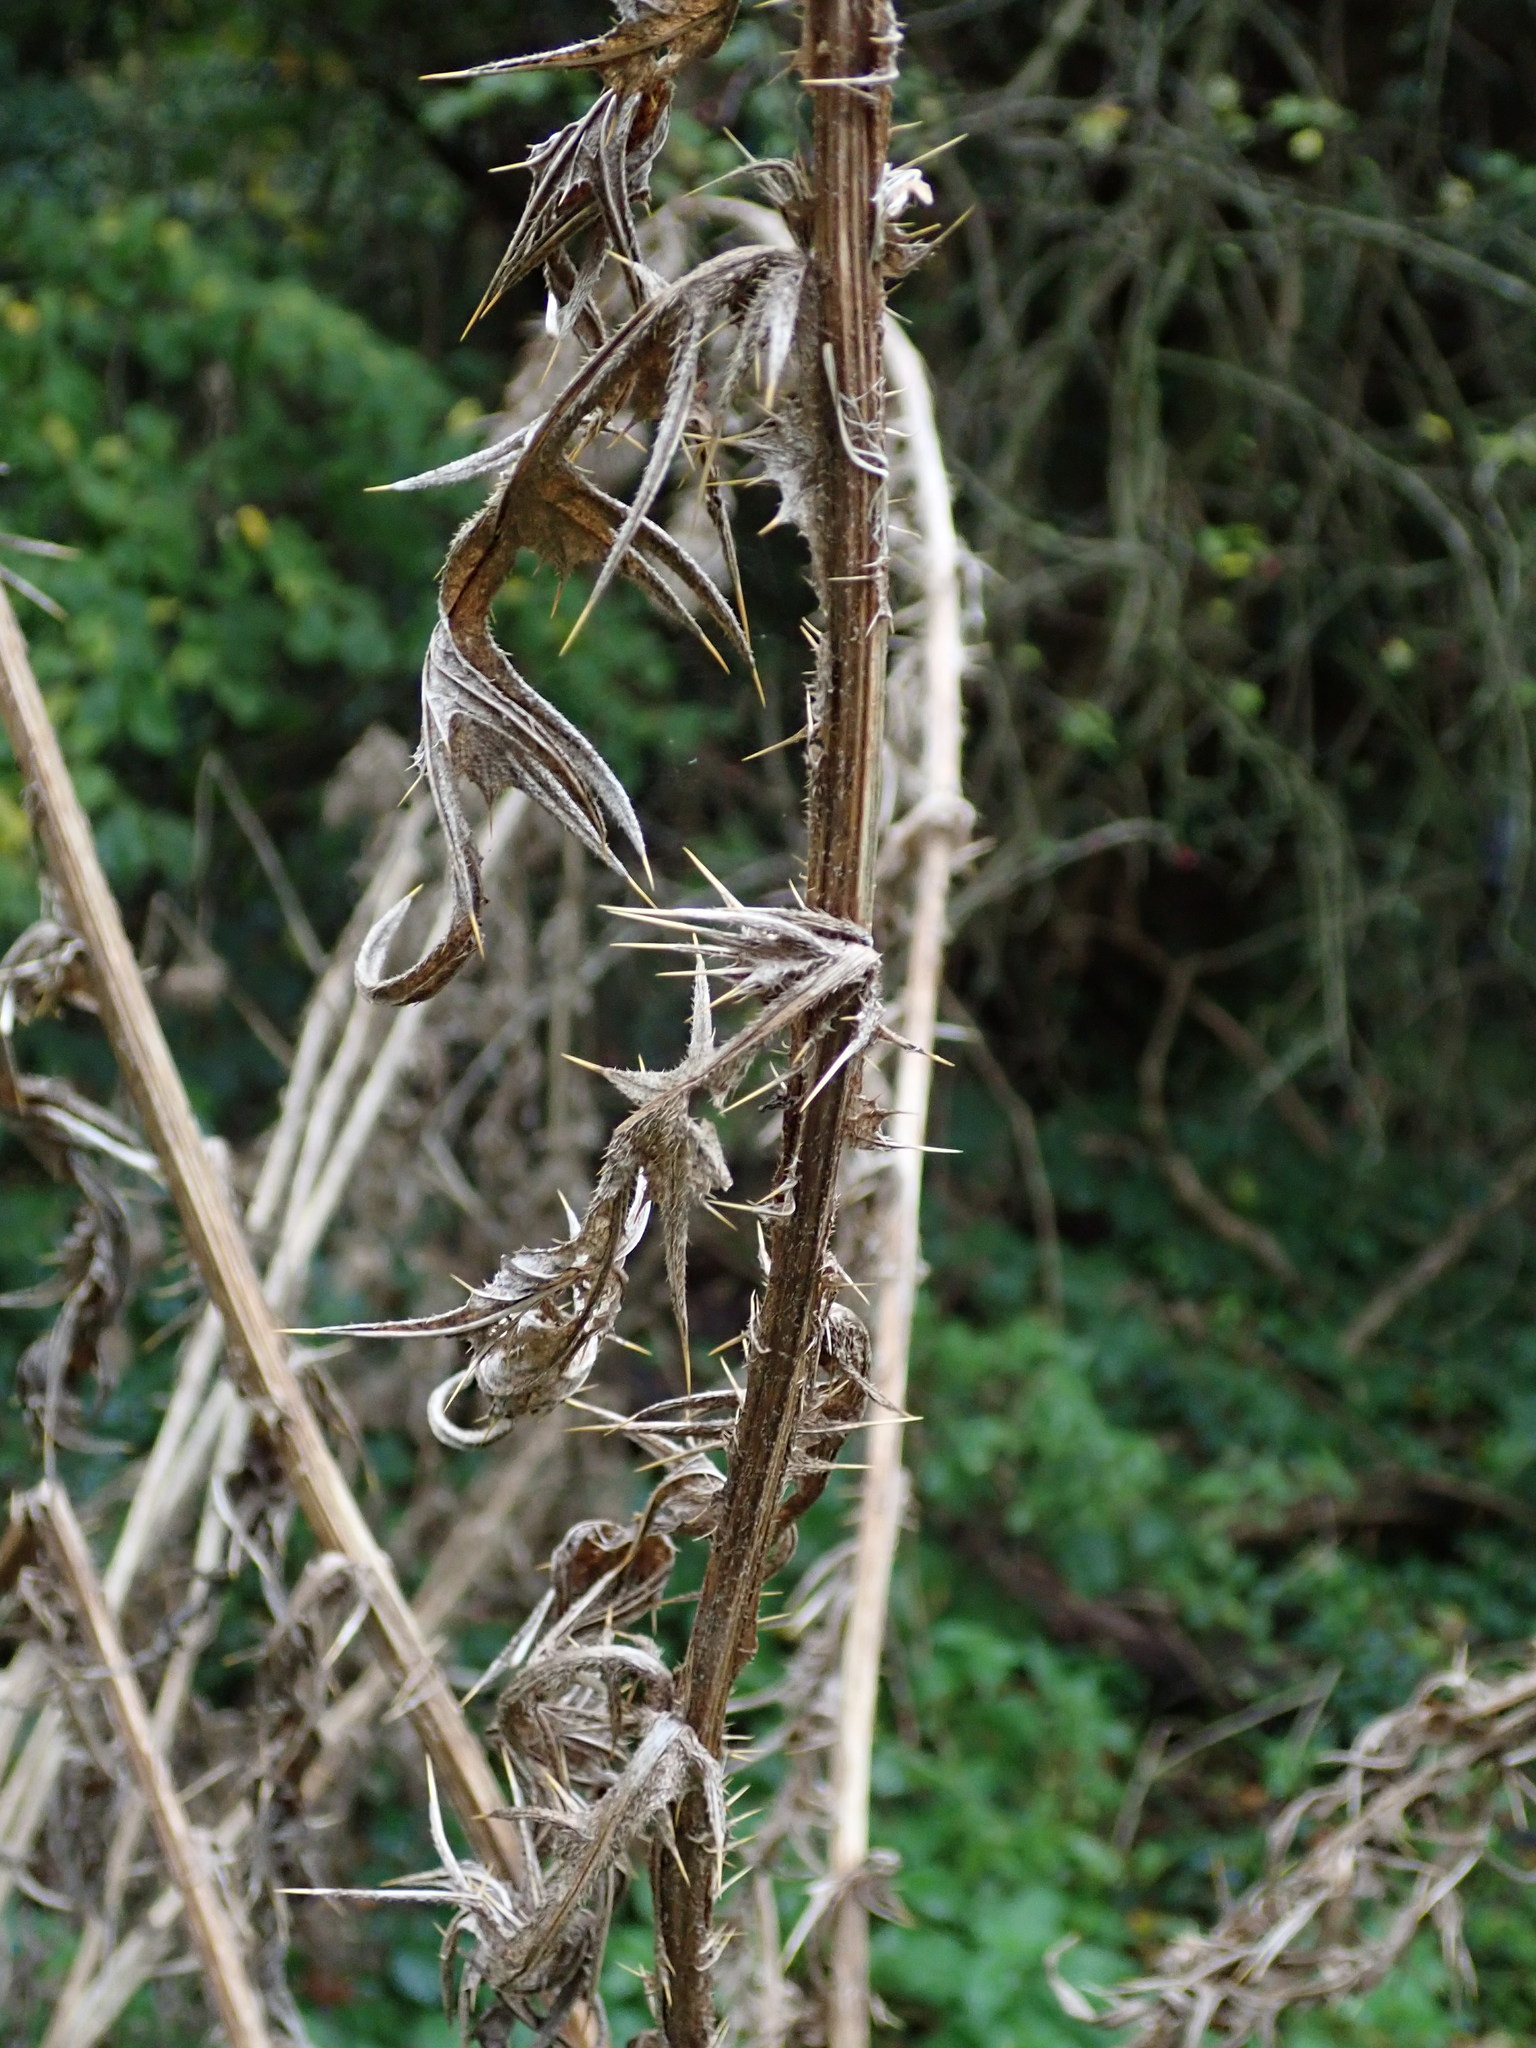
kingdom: Plantae
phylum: Tracheophyta
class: Magnoliopsida
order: Asterales
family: Asteraceae
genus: Cirsium
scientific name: Cirsium vulgare
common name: Bull thistle
